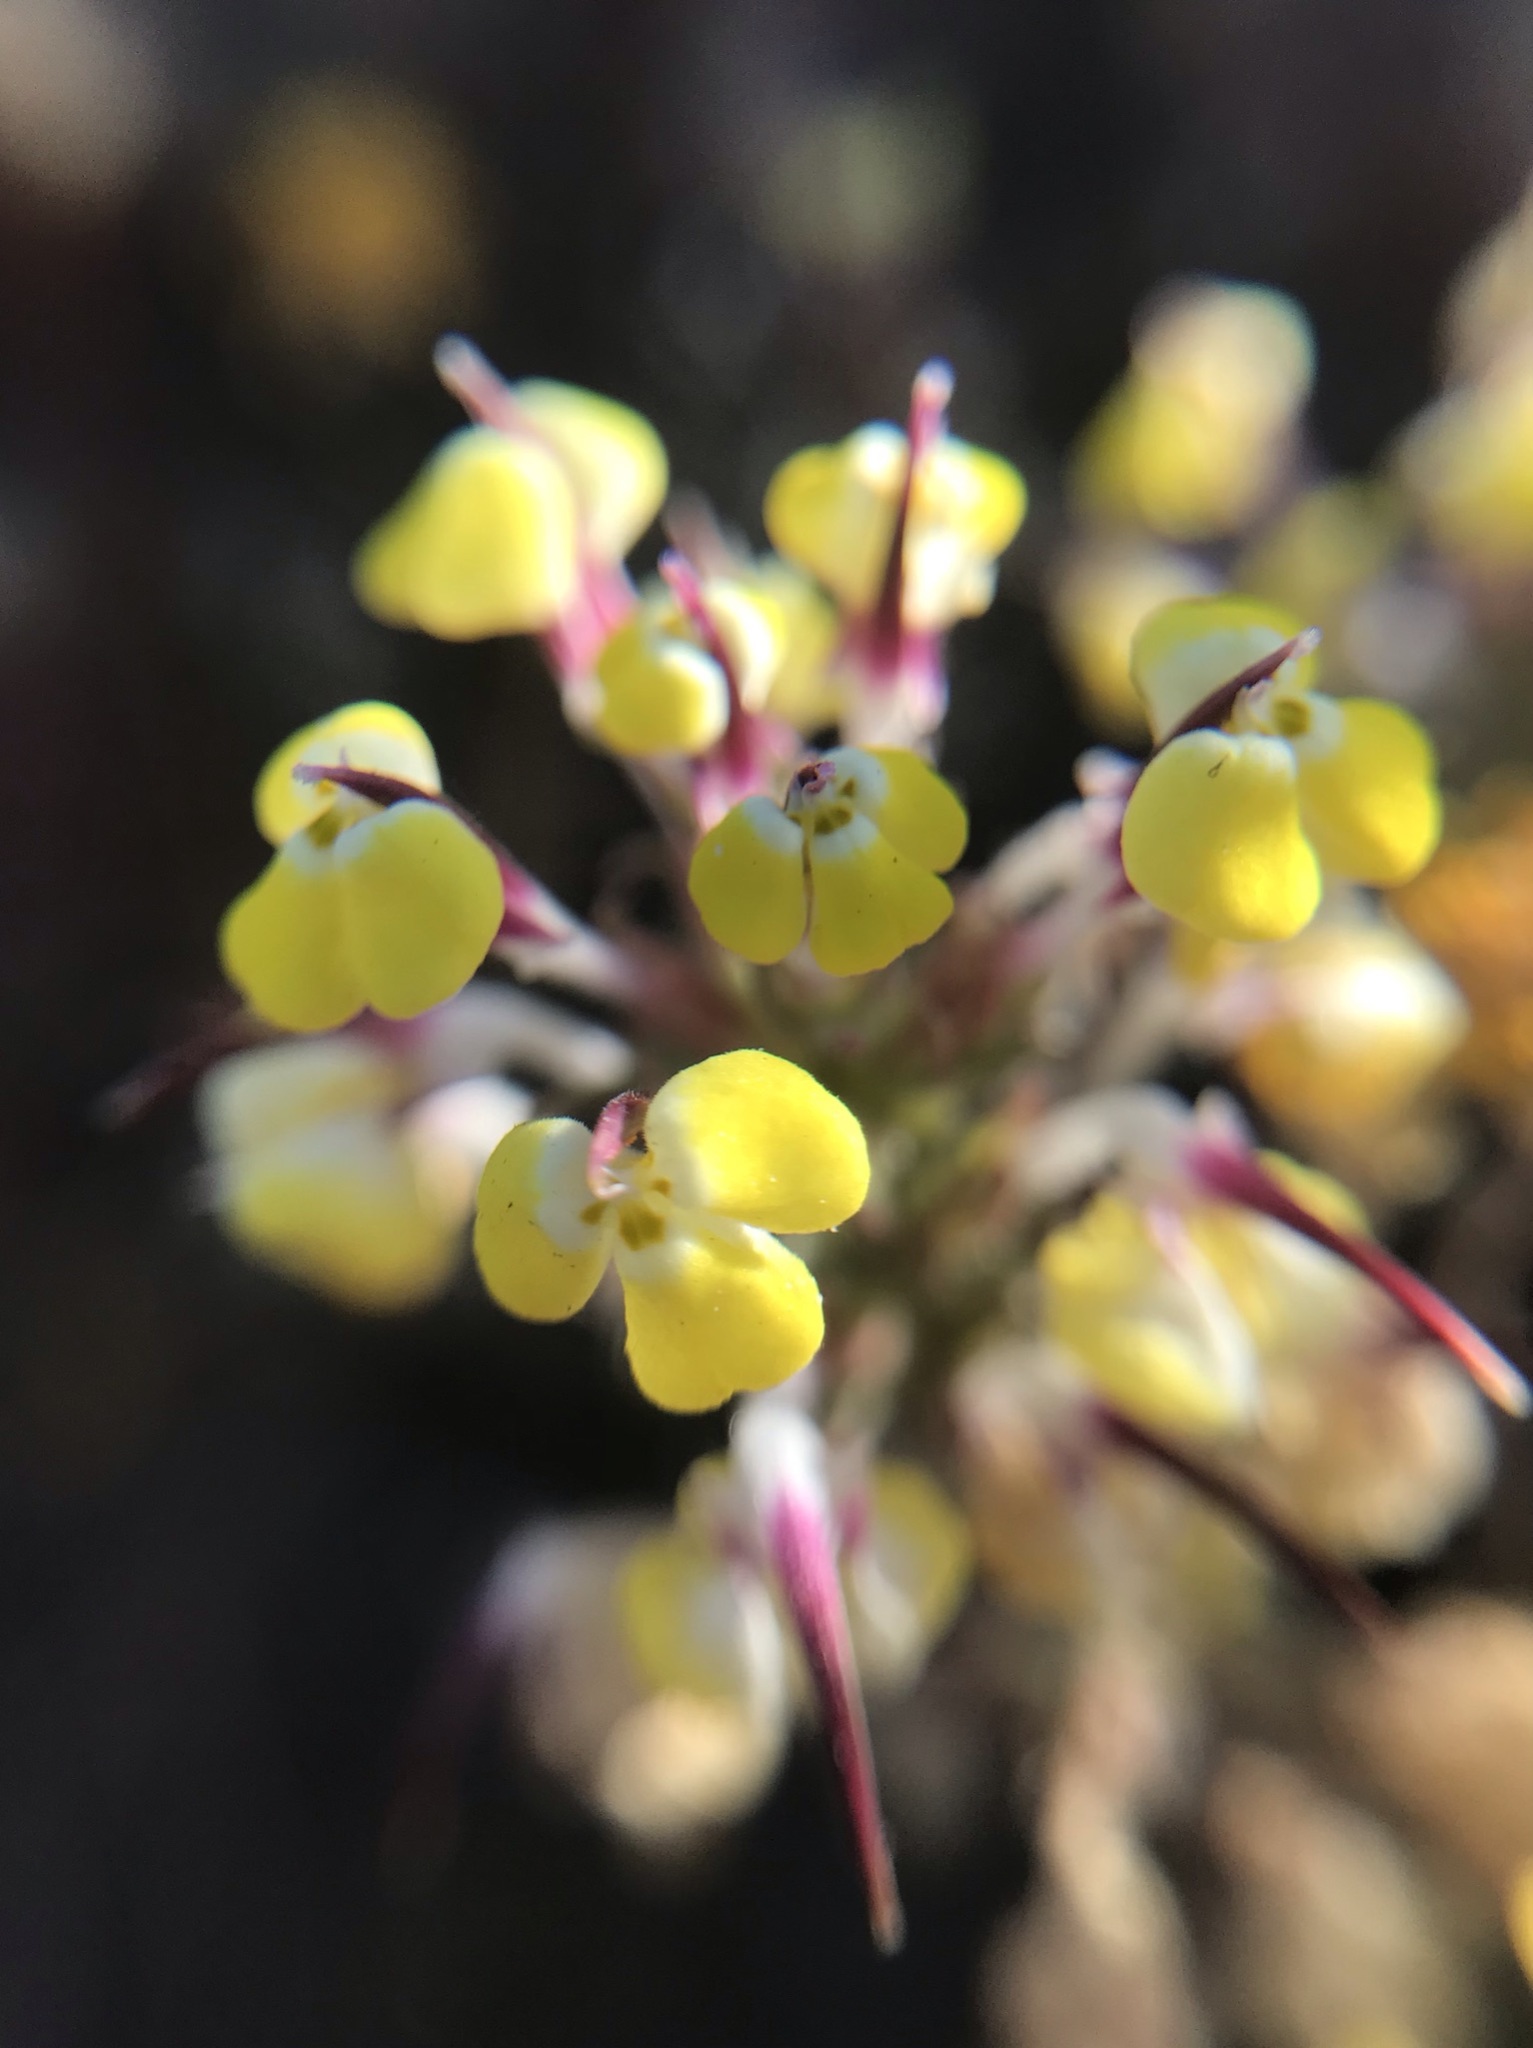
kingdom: Plantae
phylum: Tracheophyta
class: Magnoliopsida
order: Lamiales
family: Orobanchaceae
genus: Triphysaria
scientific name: Triphysaria eriantha
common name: Johnny-tuck
